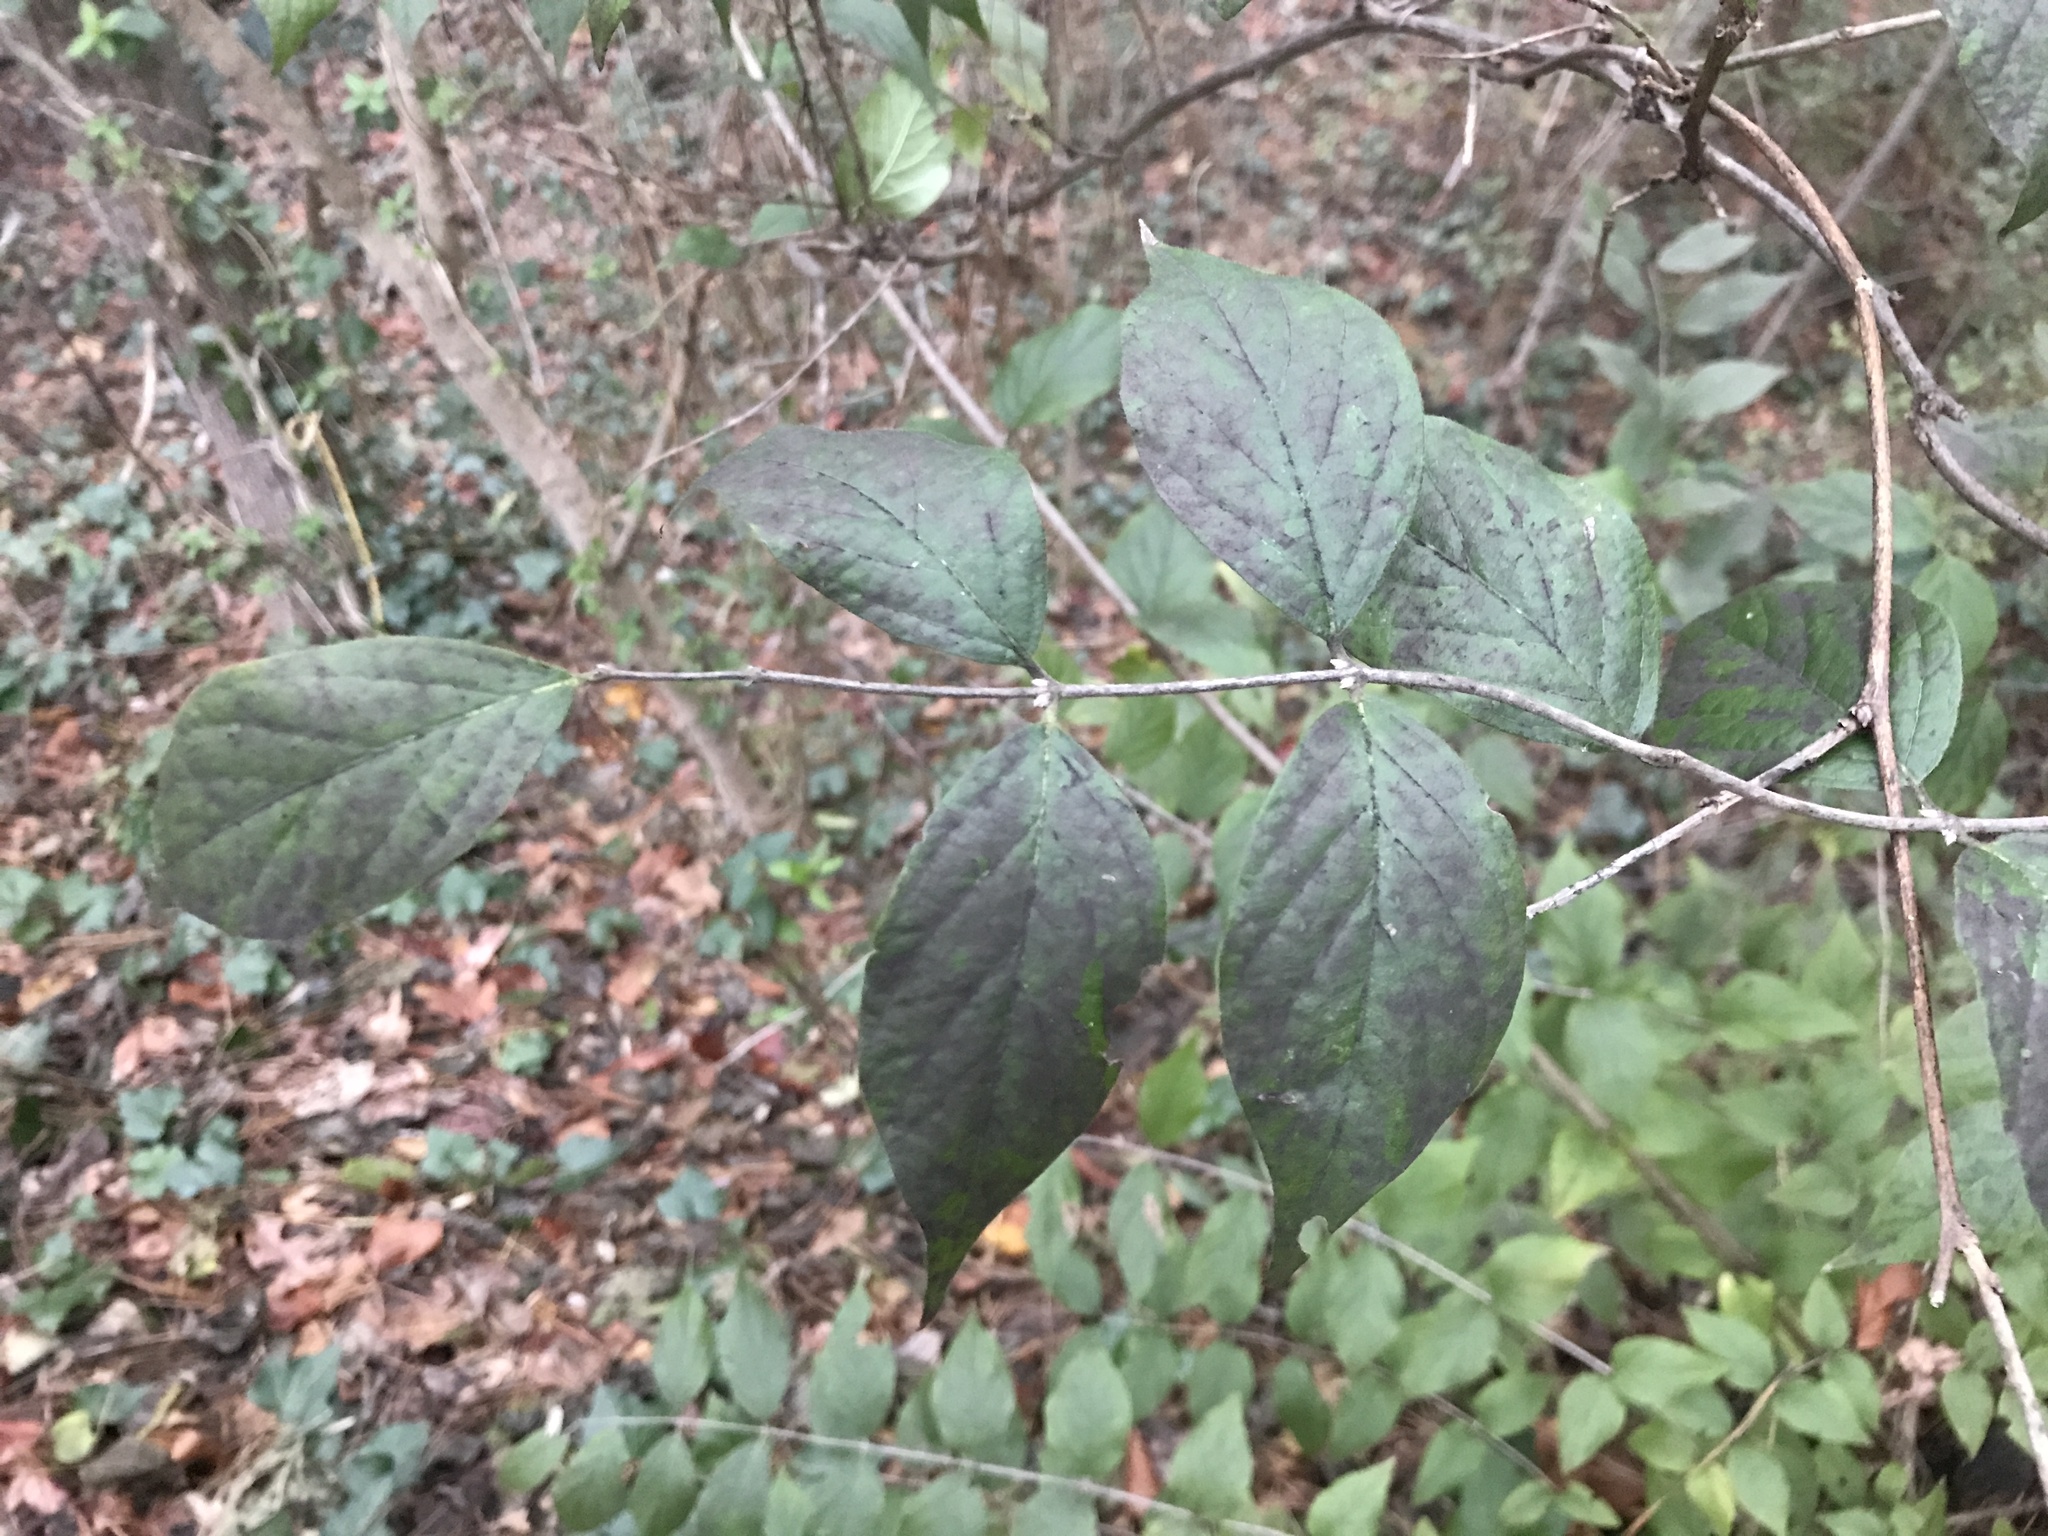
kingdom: Plantae
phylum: Tracheophyta
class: Magnoliopsida
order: Dipsacales
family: Caprifoliaceae
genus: Lonicera
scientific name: Lonicera maackii
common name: Amur honeysuckle
